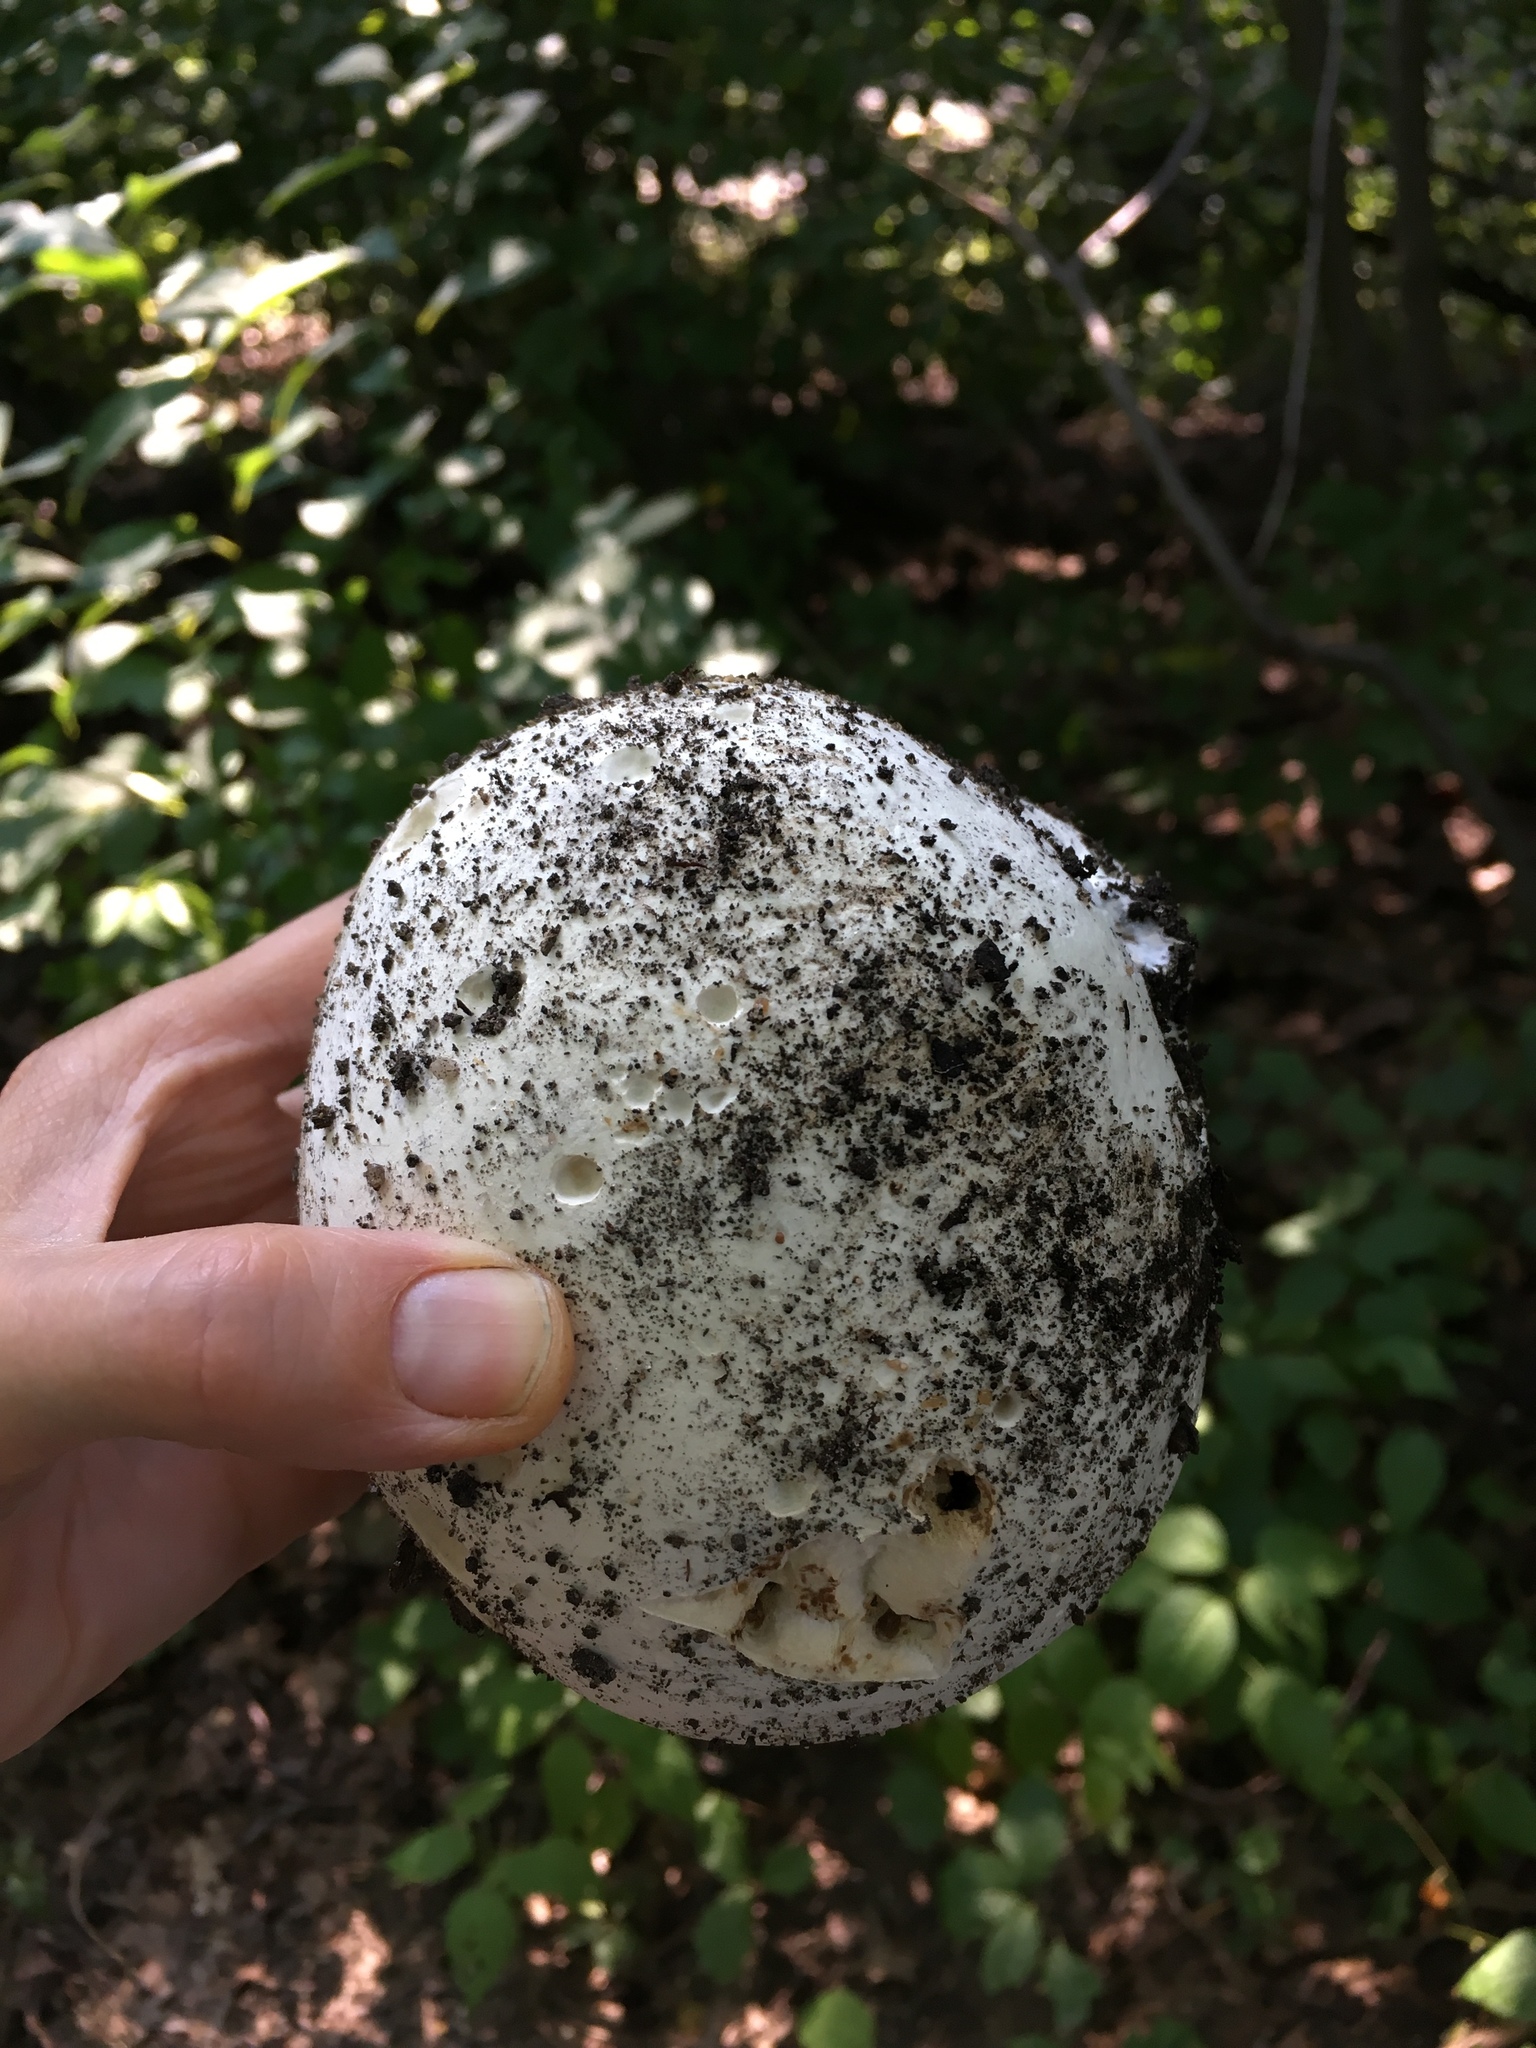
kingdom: Fungi
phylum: Basidiomycota
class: Agaricomycetes
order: Agaricales
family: Lycoperdaceae
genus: Calvatia
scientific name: Calvatia gigantea
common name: Giant puffball
